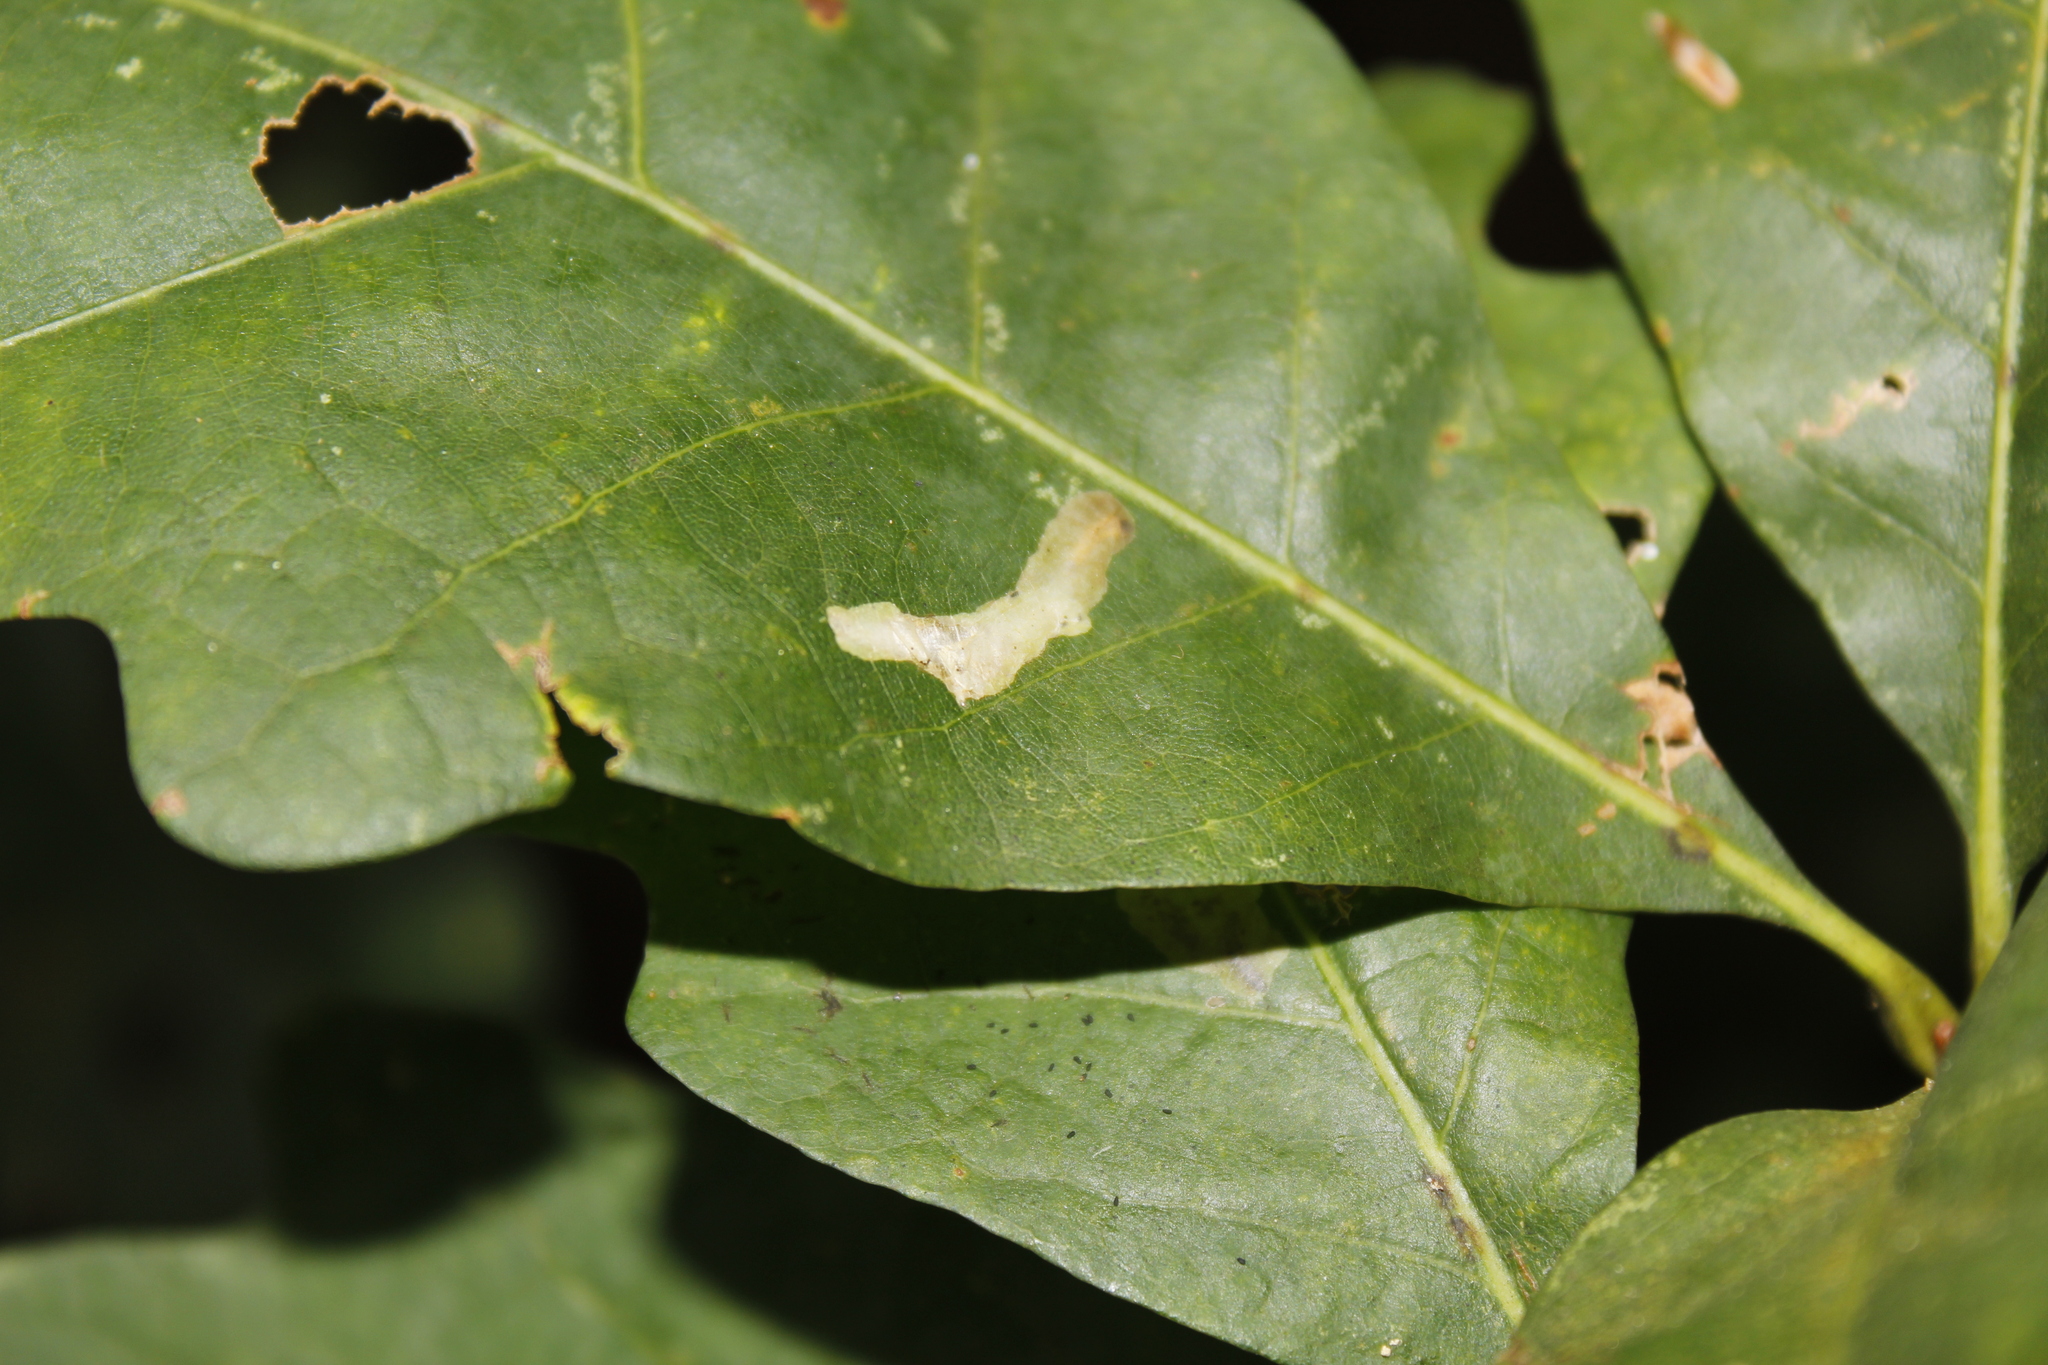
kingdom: Animalia
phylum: Arthropoda
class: Insecta
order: Lepidoptera
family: Tischeriidae
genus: Coptotriche
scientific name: Coptotriche badiiella
